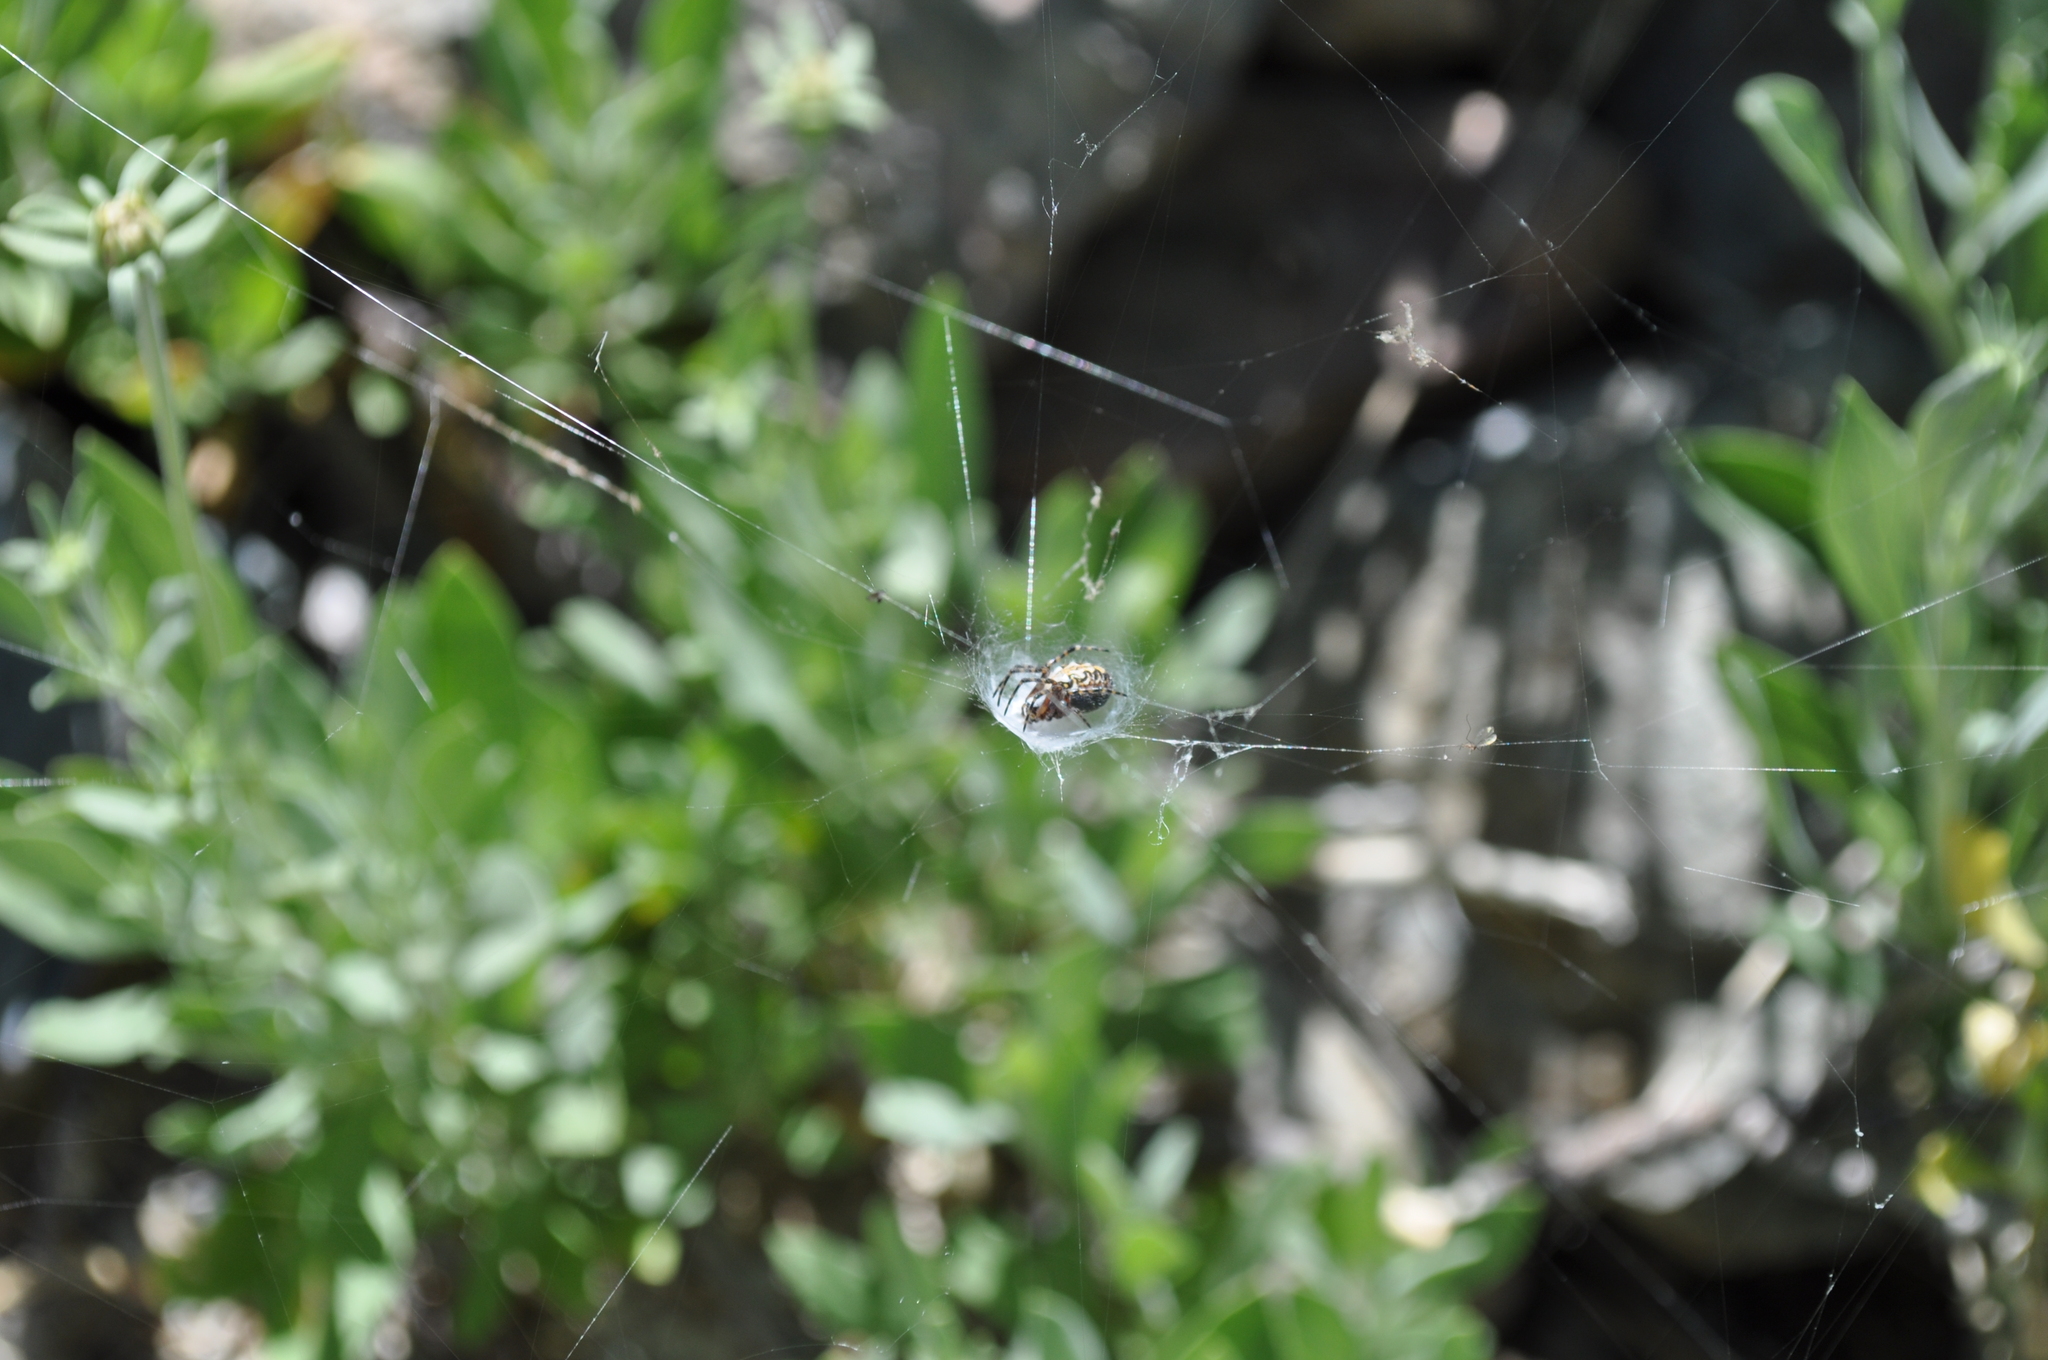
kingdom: Animalia
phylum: Arthropoda
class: Arachnida
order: Araneae
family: Araneidae
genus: Araneus
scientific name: Araneus annulipes
